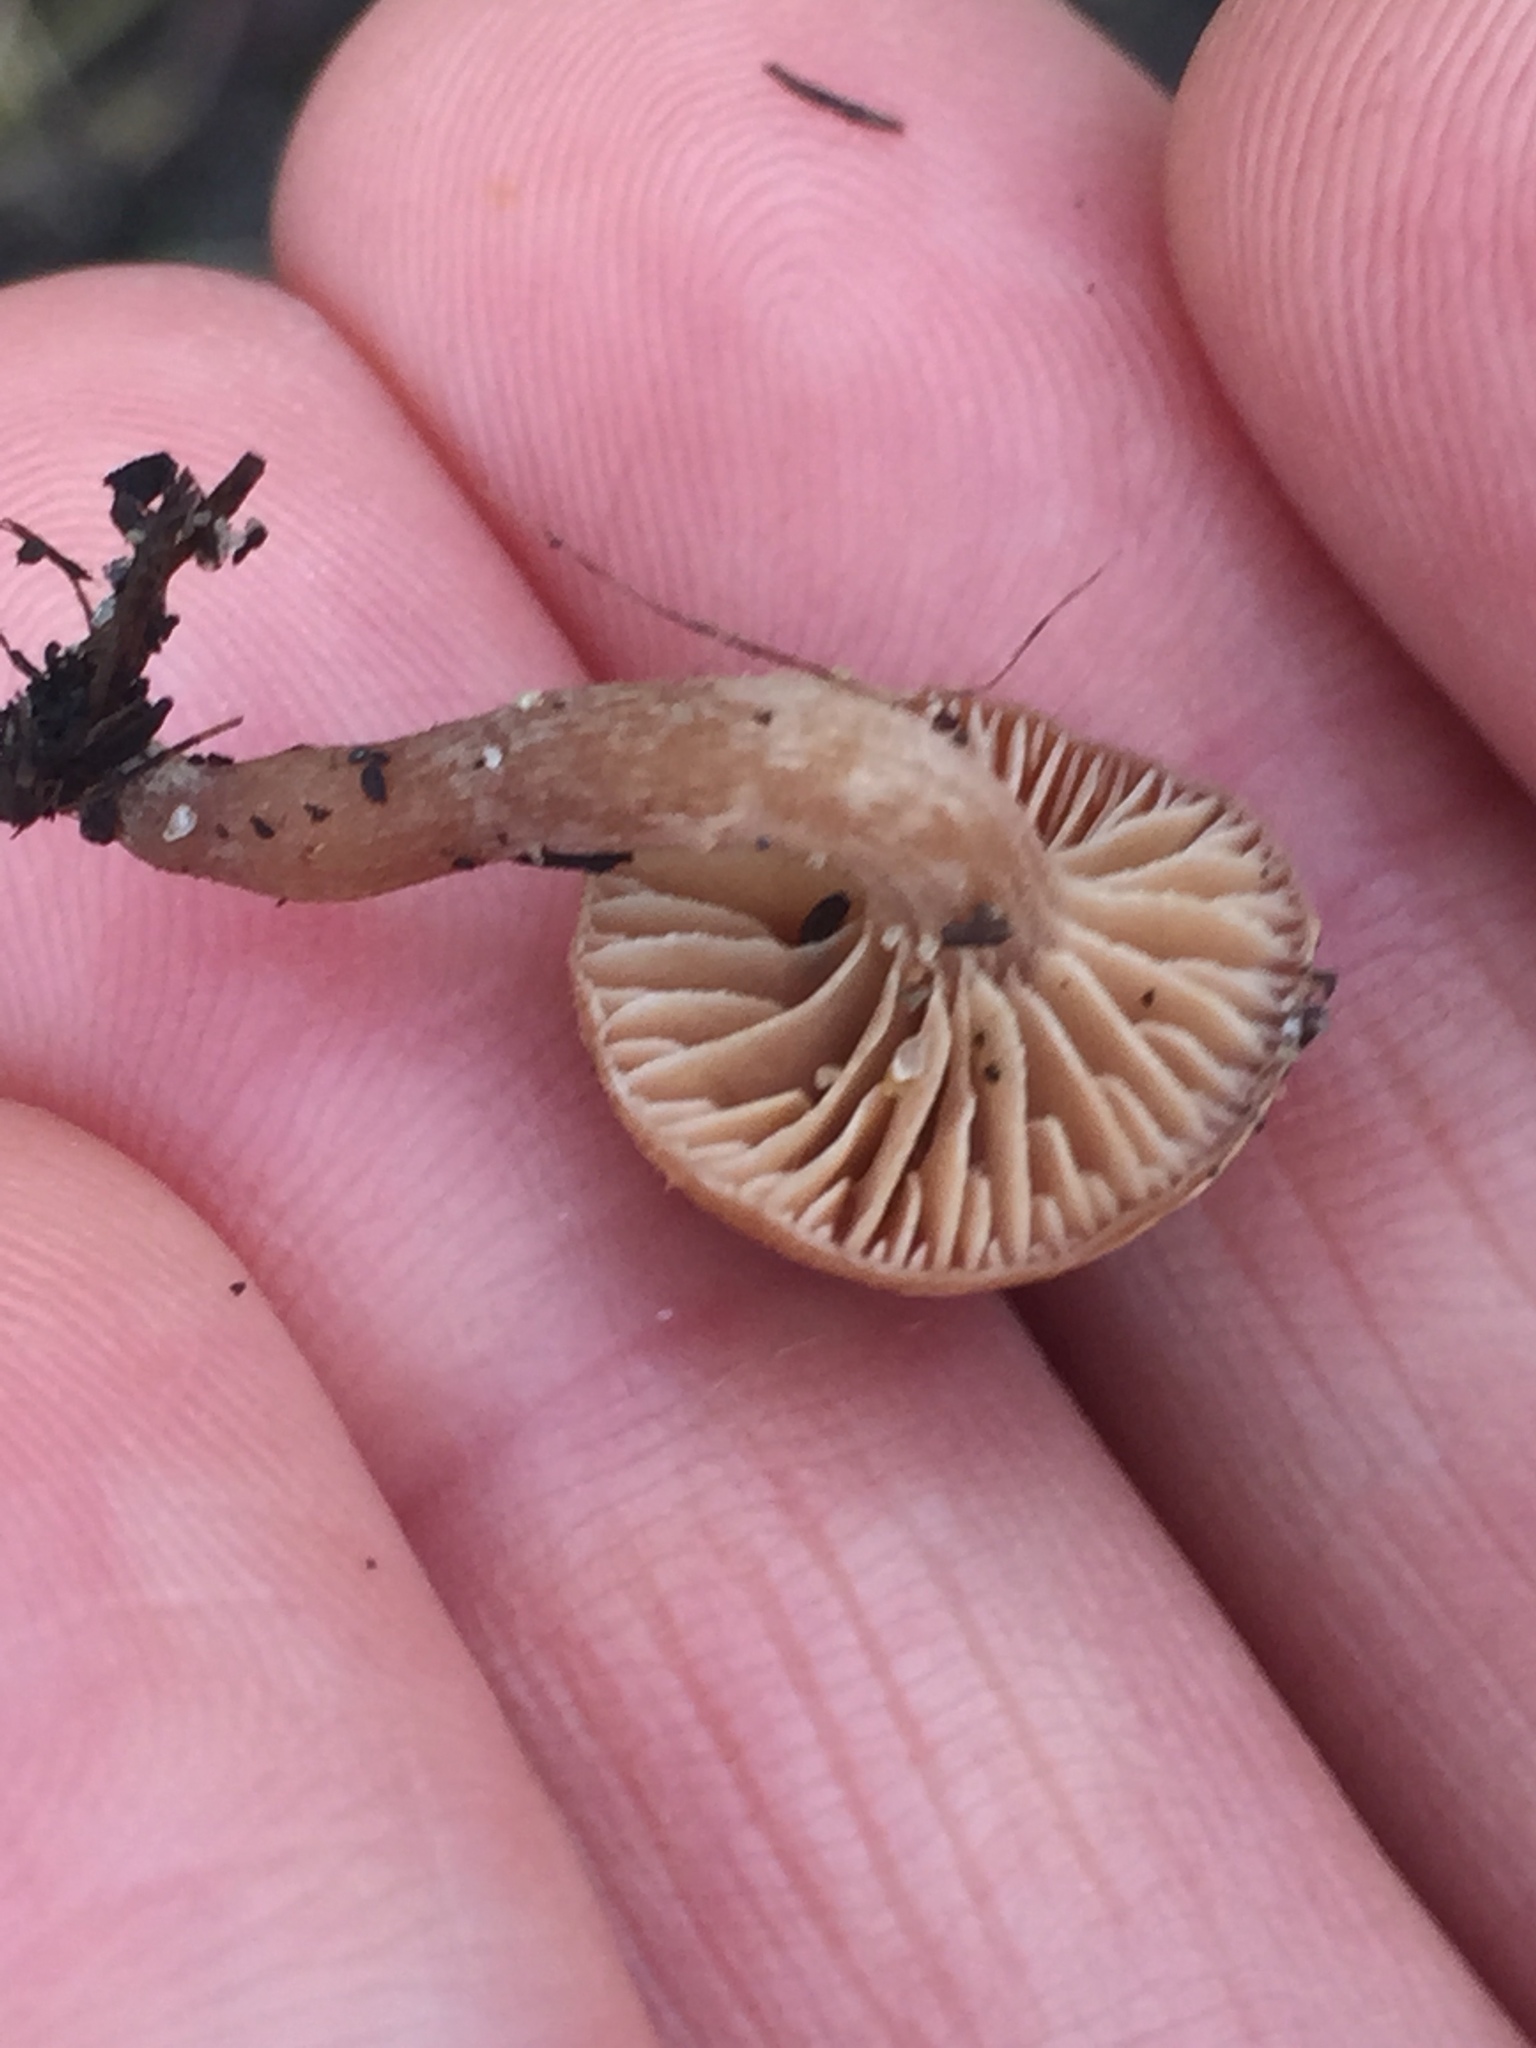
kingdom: Fungi
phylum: Basidiomycota
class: Agaricomycetes
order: Agaricales
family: Tubariaceae
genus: Tubaria
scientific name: Tubaria furfuracea
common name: Scurfy twiglet
